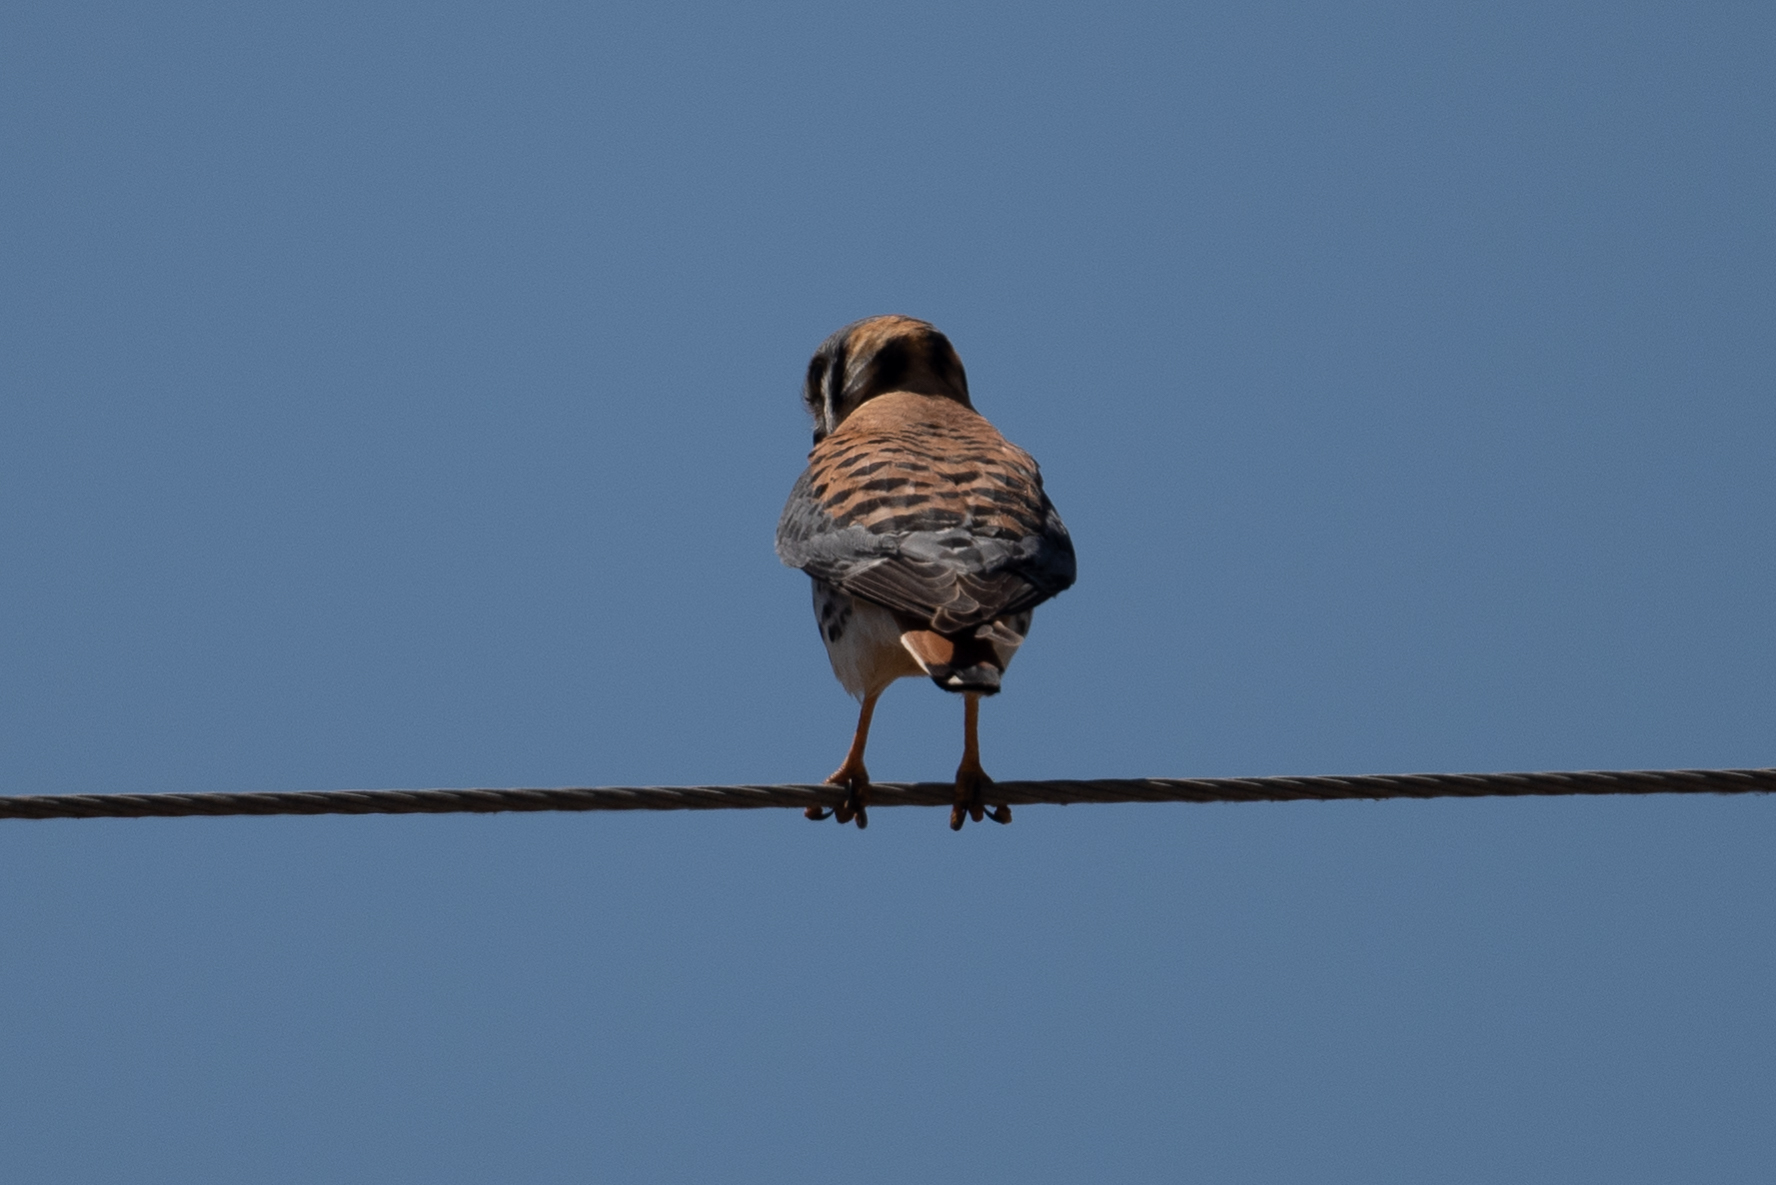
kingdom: Animalia
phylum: Chordata
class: Aves
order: Falconiformes
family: Falconidae
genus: Falco
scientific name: Falco sparverius
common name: American kestrel
